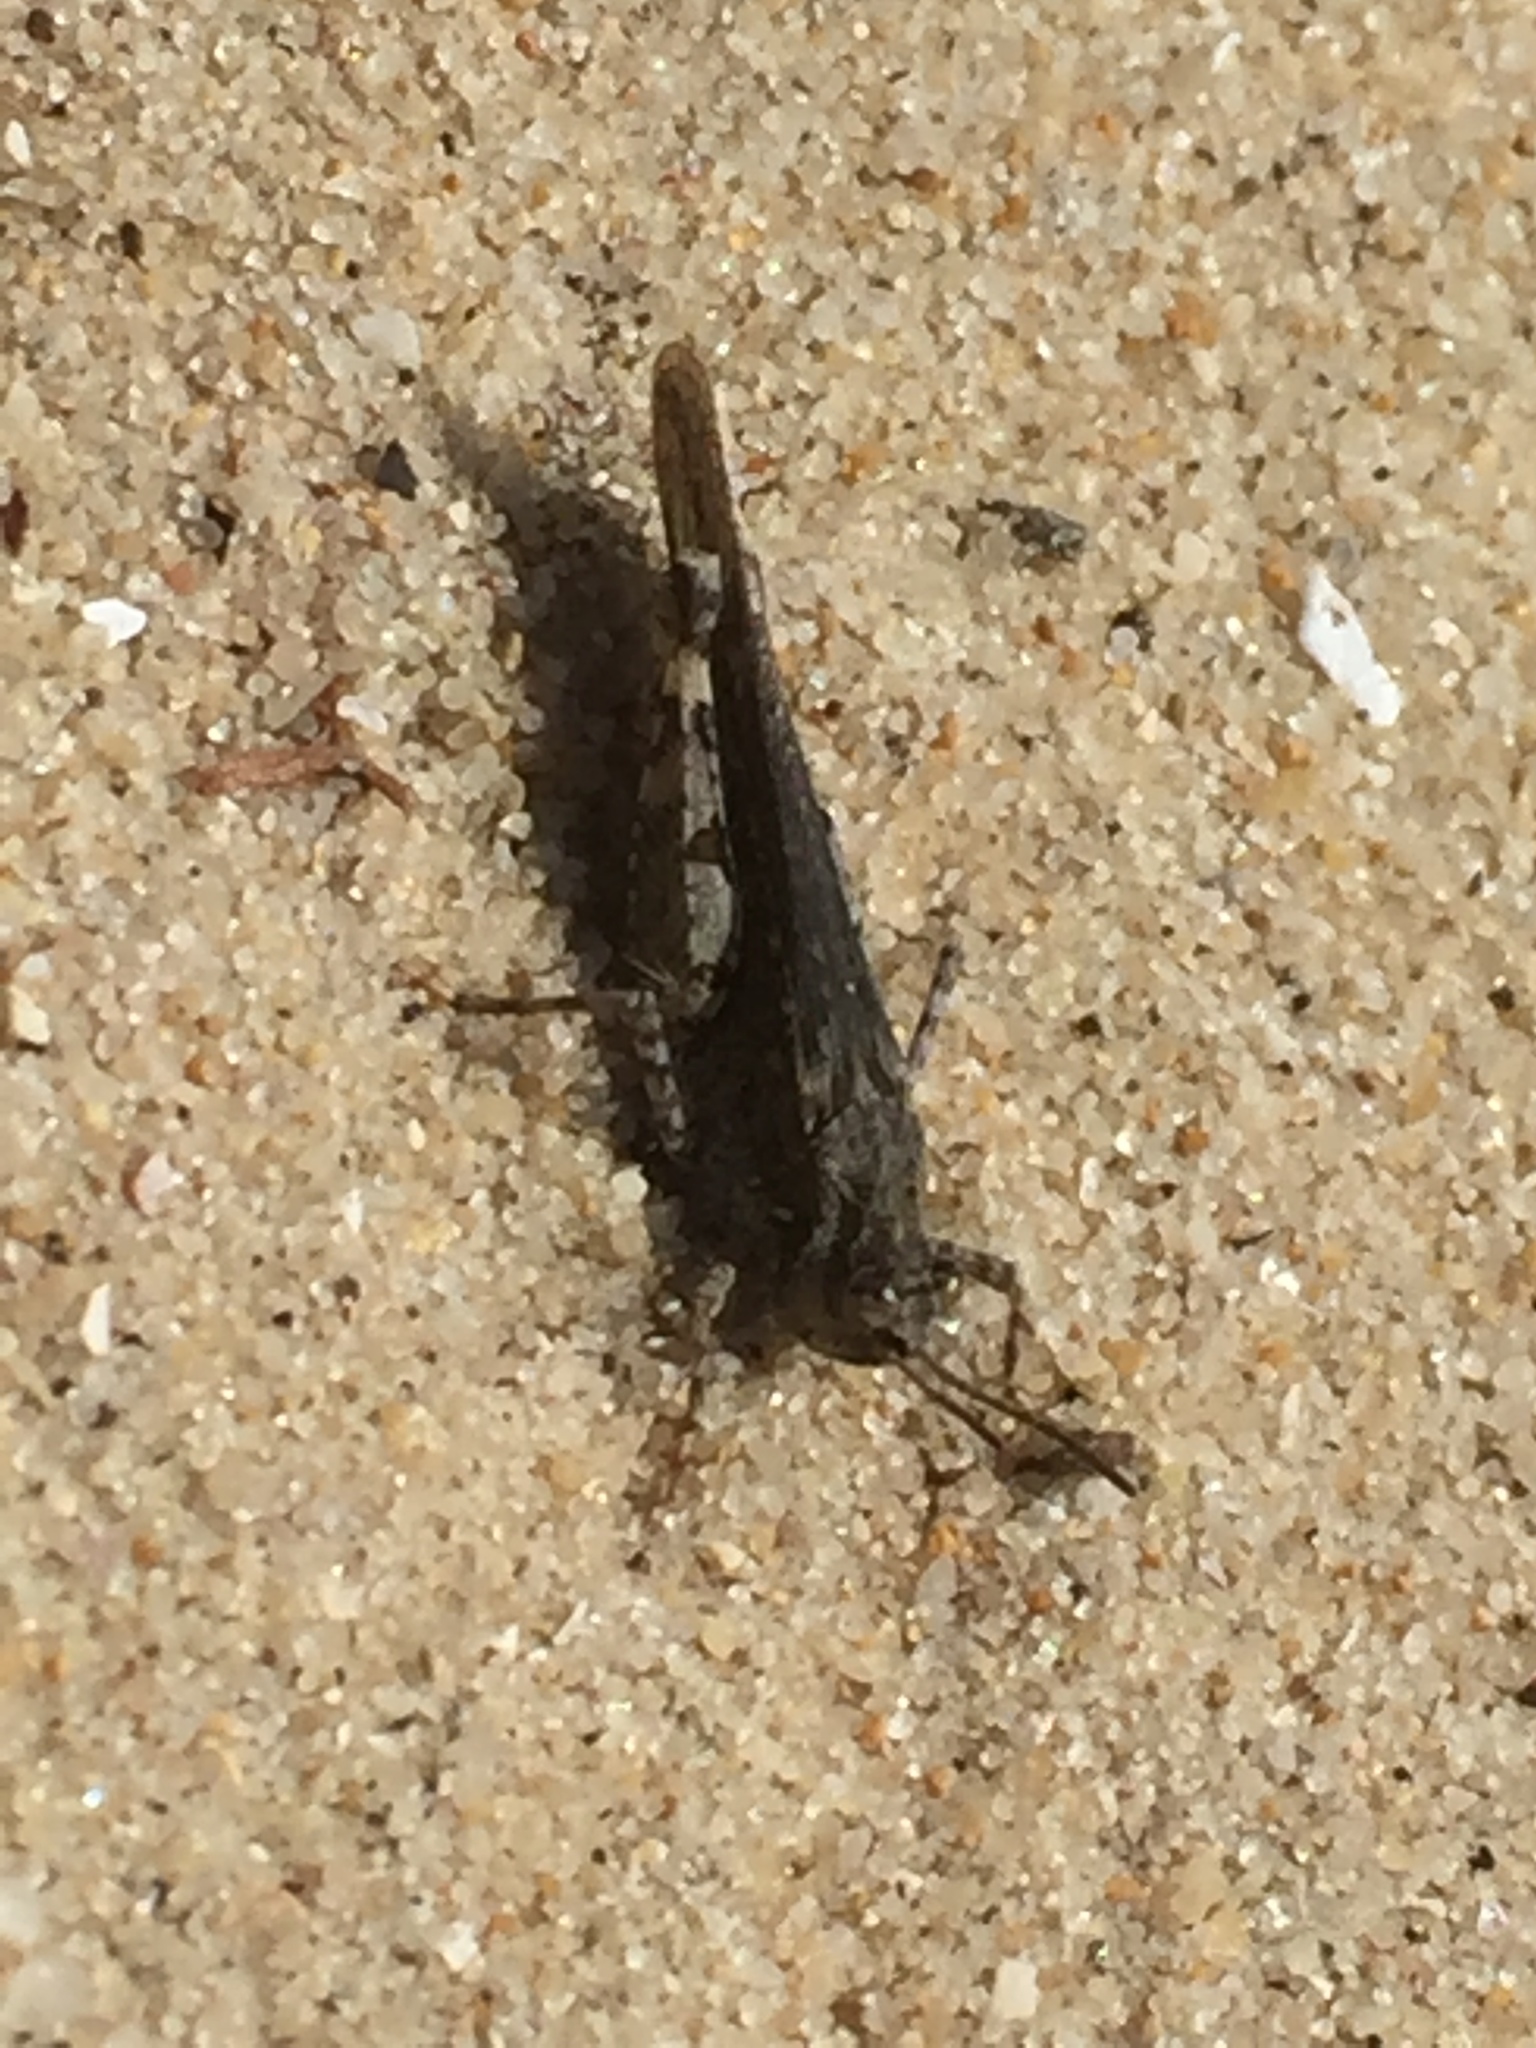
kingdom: Animalia
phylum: Arthropoda
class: Insecta
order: Orthoptera
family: Acrididae
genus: Acrotylus
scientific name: Acrotylus fischeri
